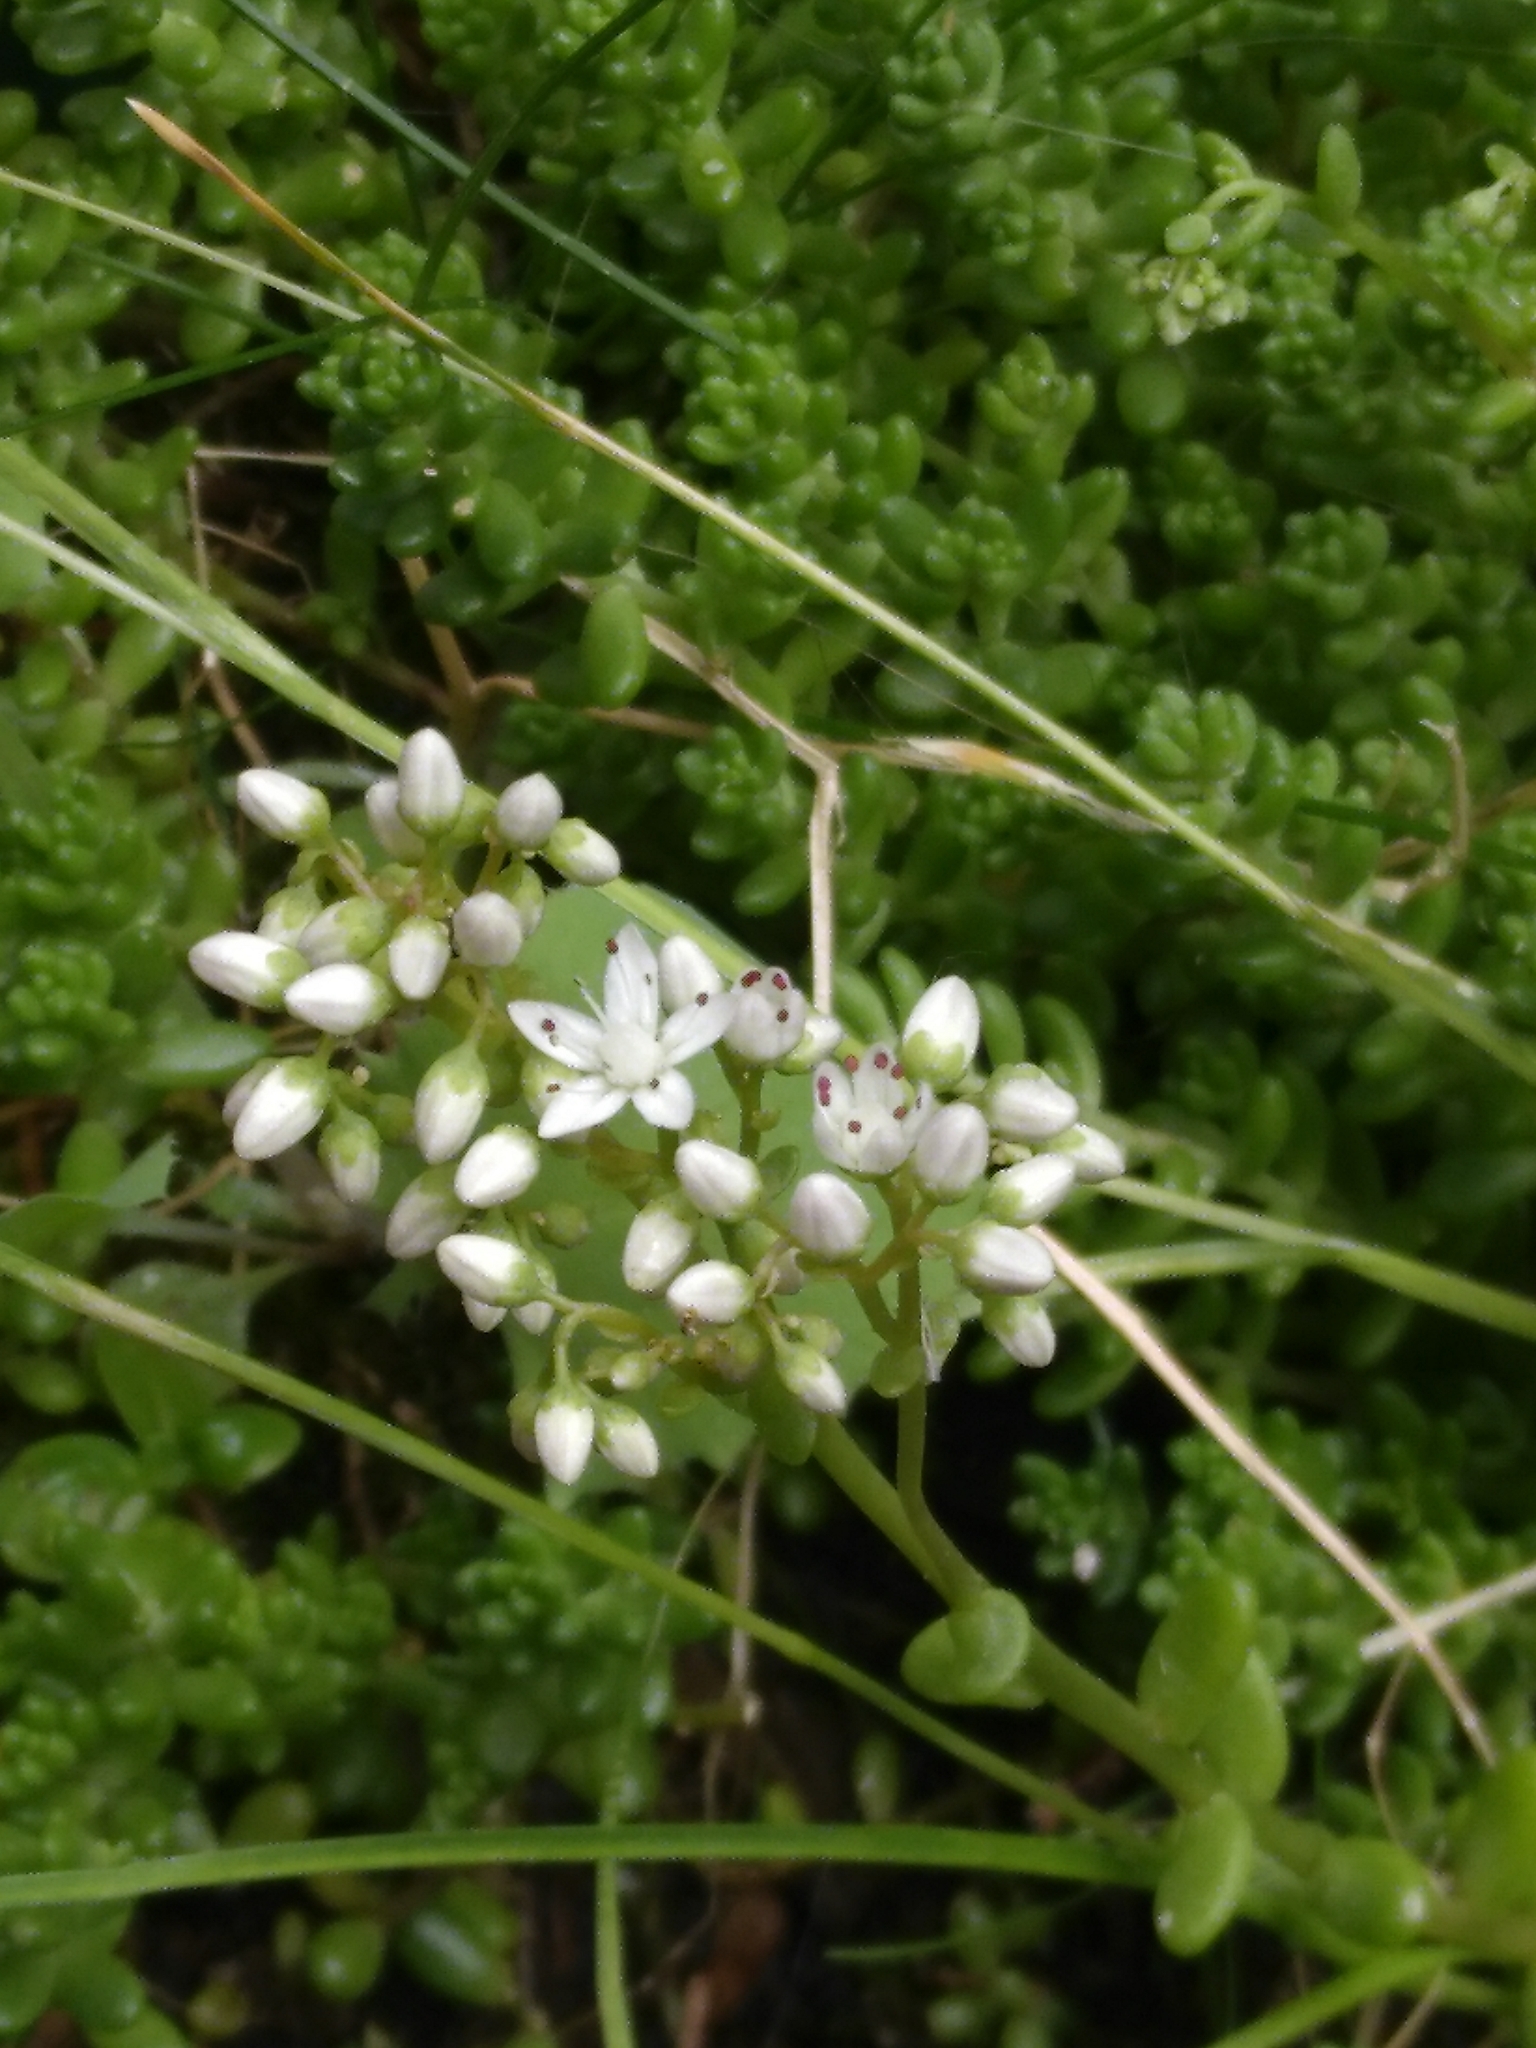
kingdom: Plantae
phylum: Tracheophyta
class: Magnoliopsida
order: Saxifragales
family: Crassulaceae
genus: Sedum
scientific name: Sedum album
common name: White stonecrop
